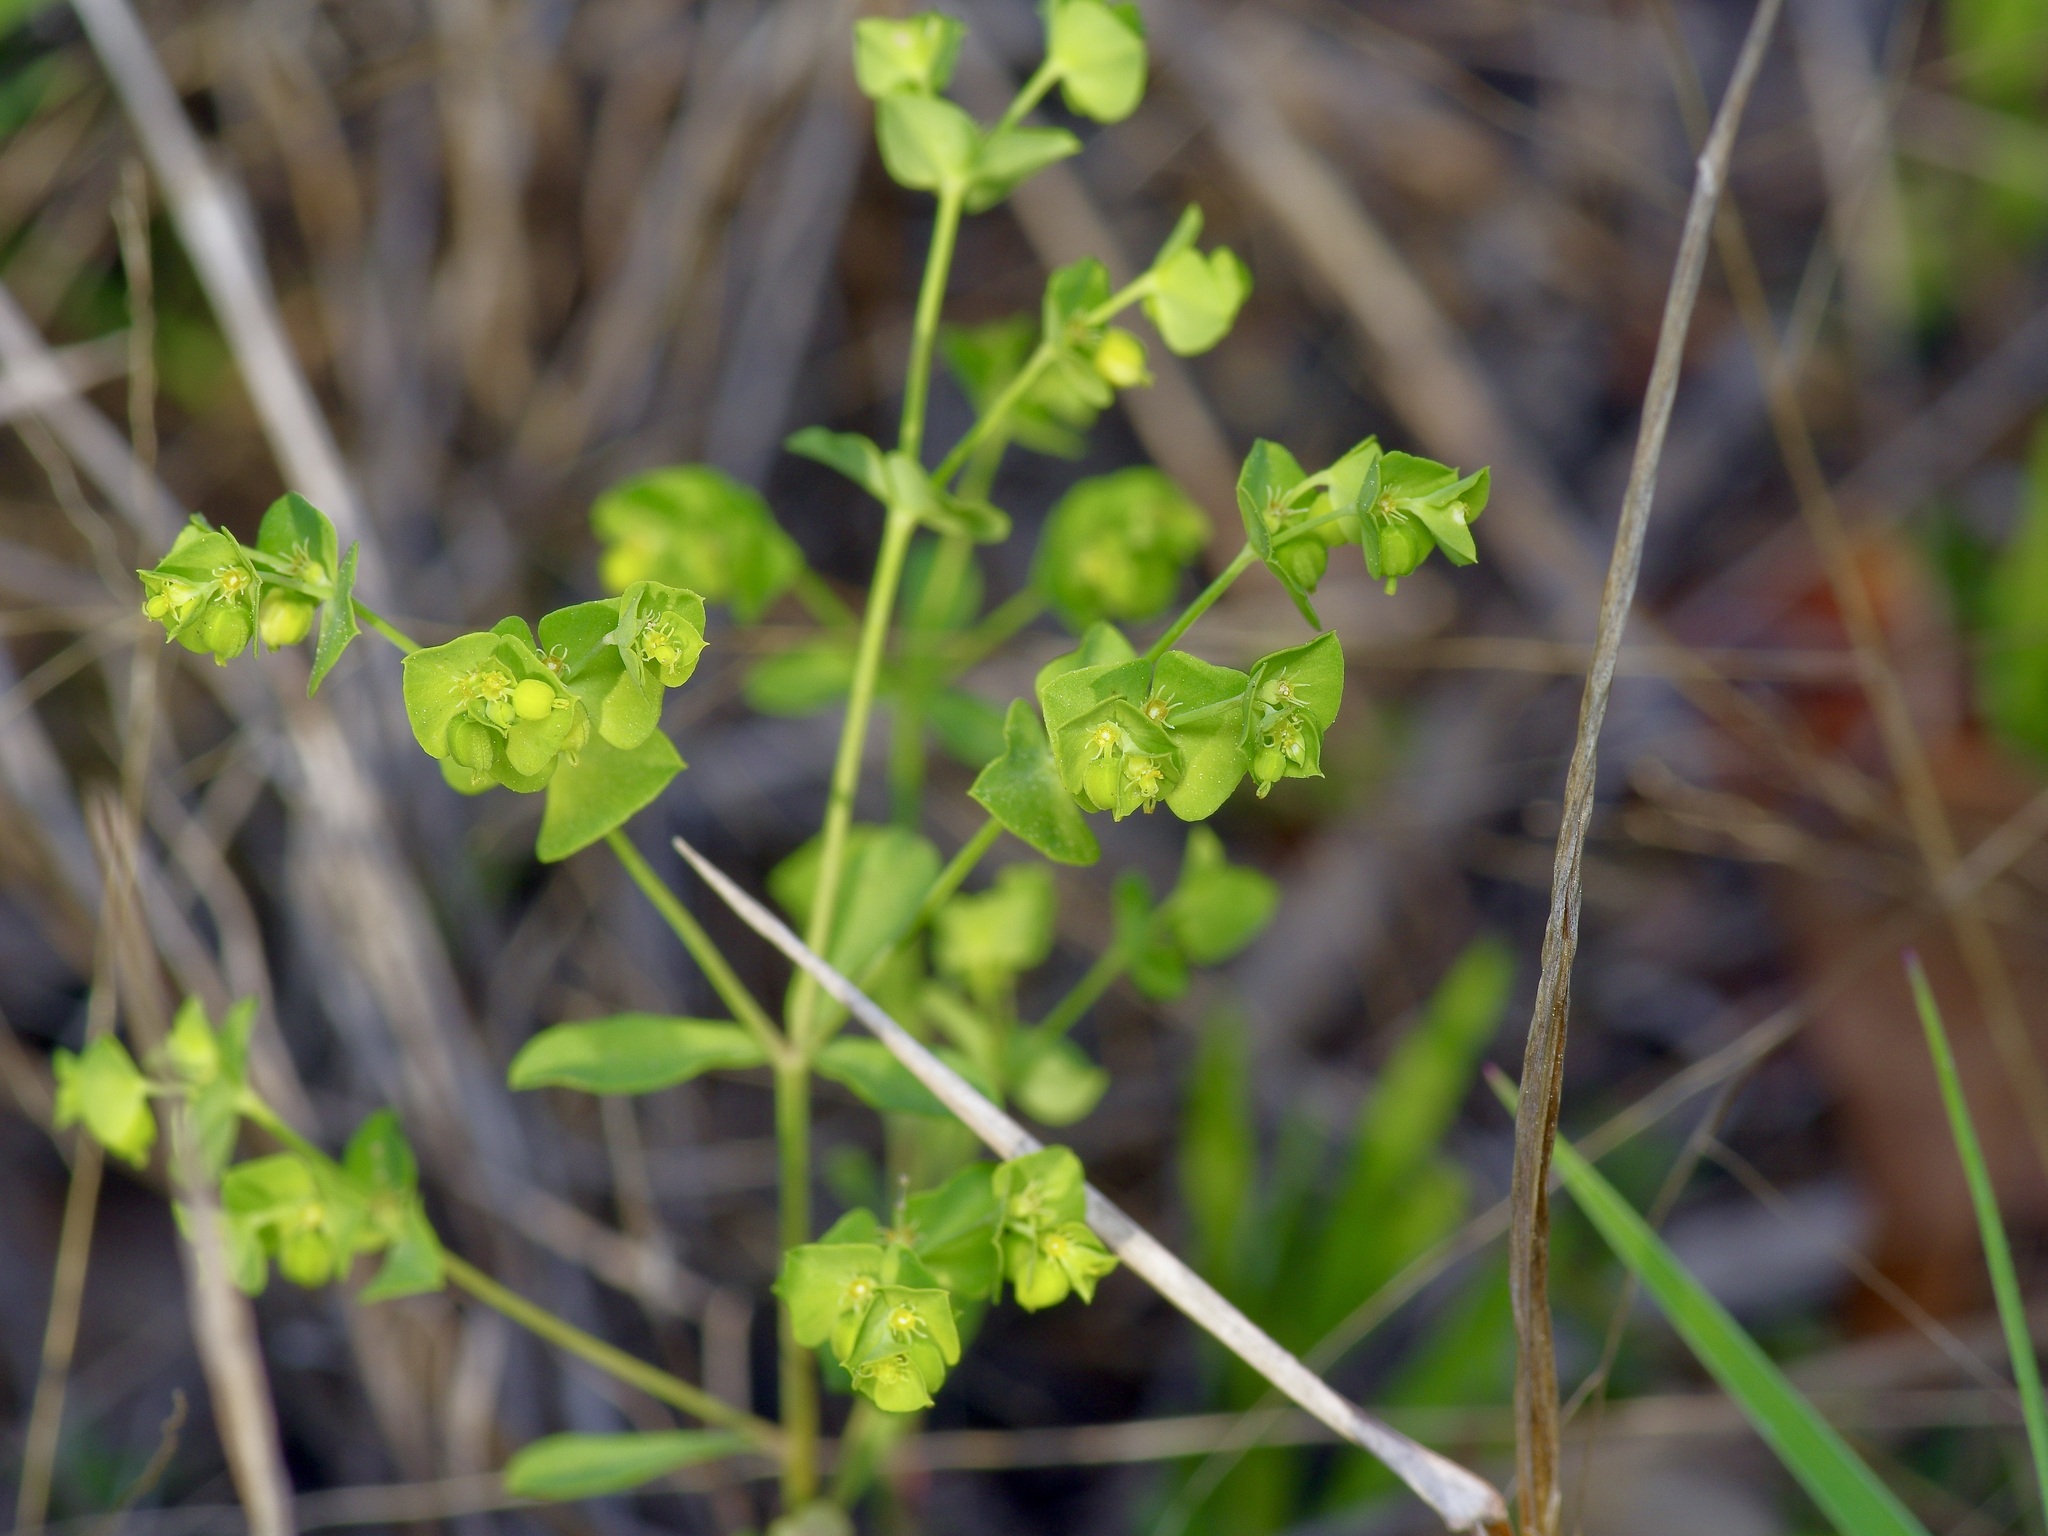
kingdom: Plantae
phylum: Tracheophyta
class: Magnoliopsida
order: Malpighiales
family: Euphorbiaceae
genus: Euphorbia
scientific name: Euphorbia tetrapora
